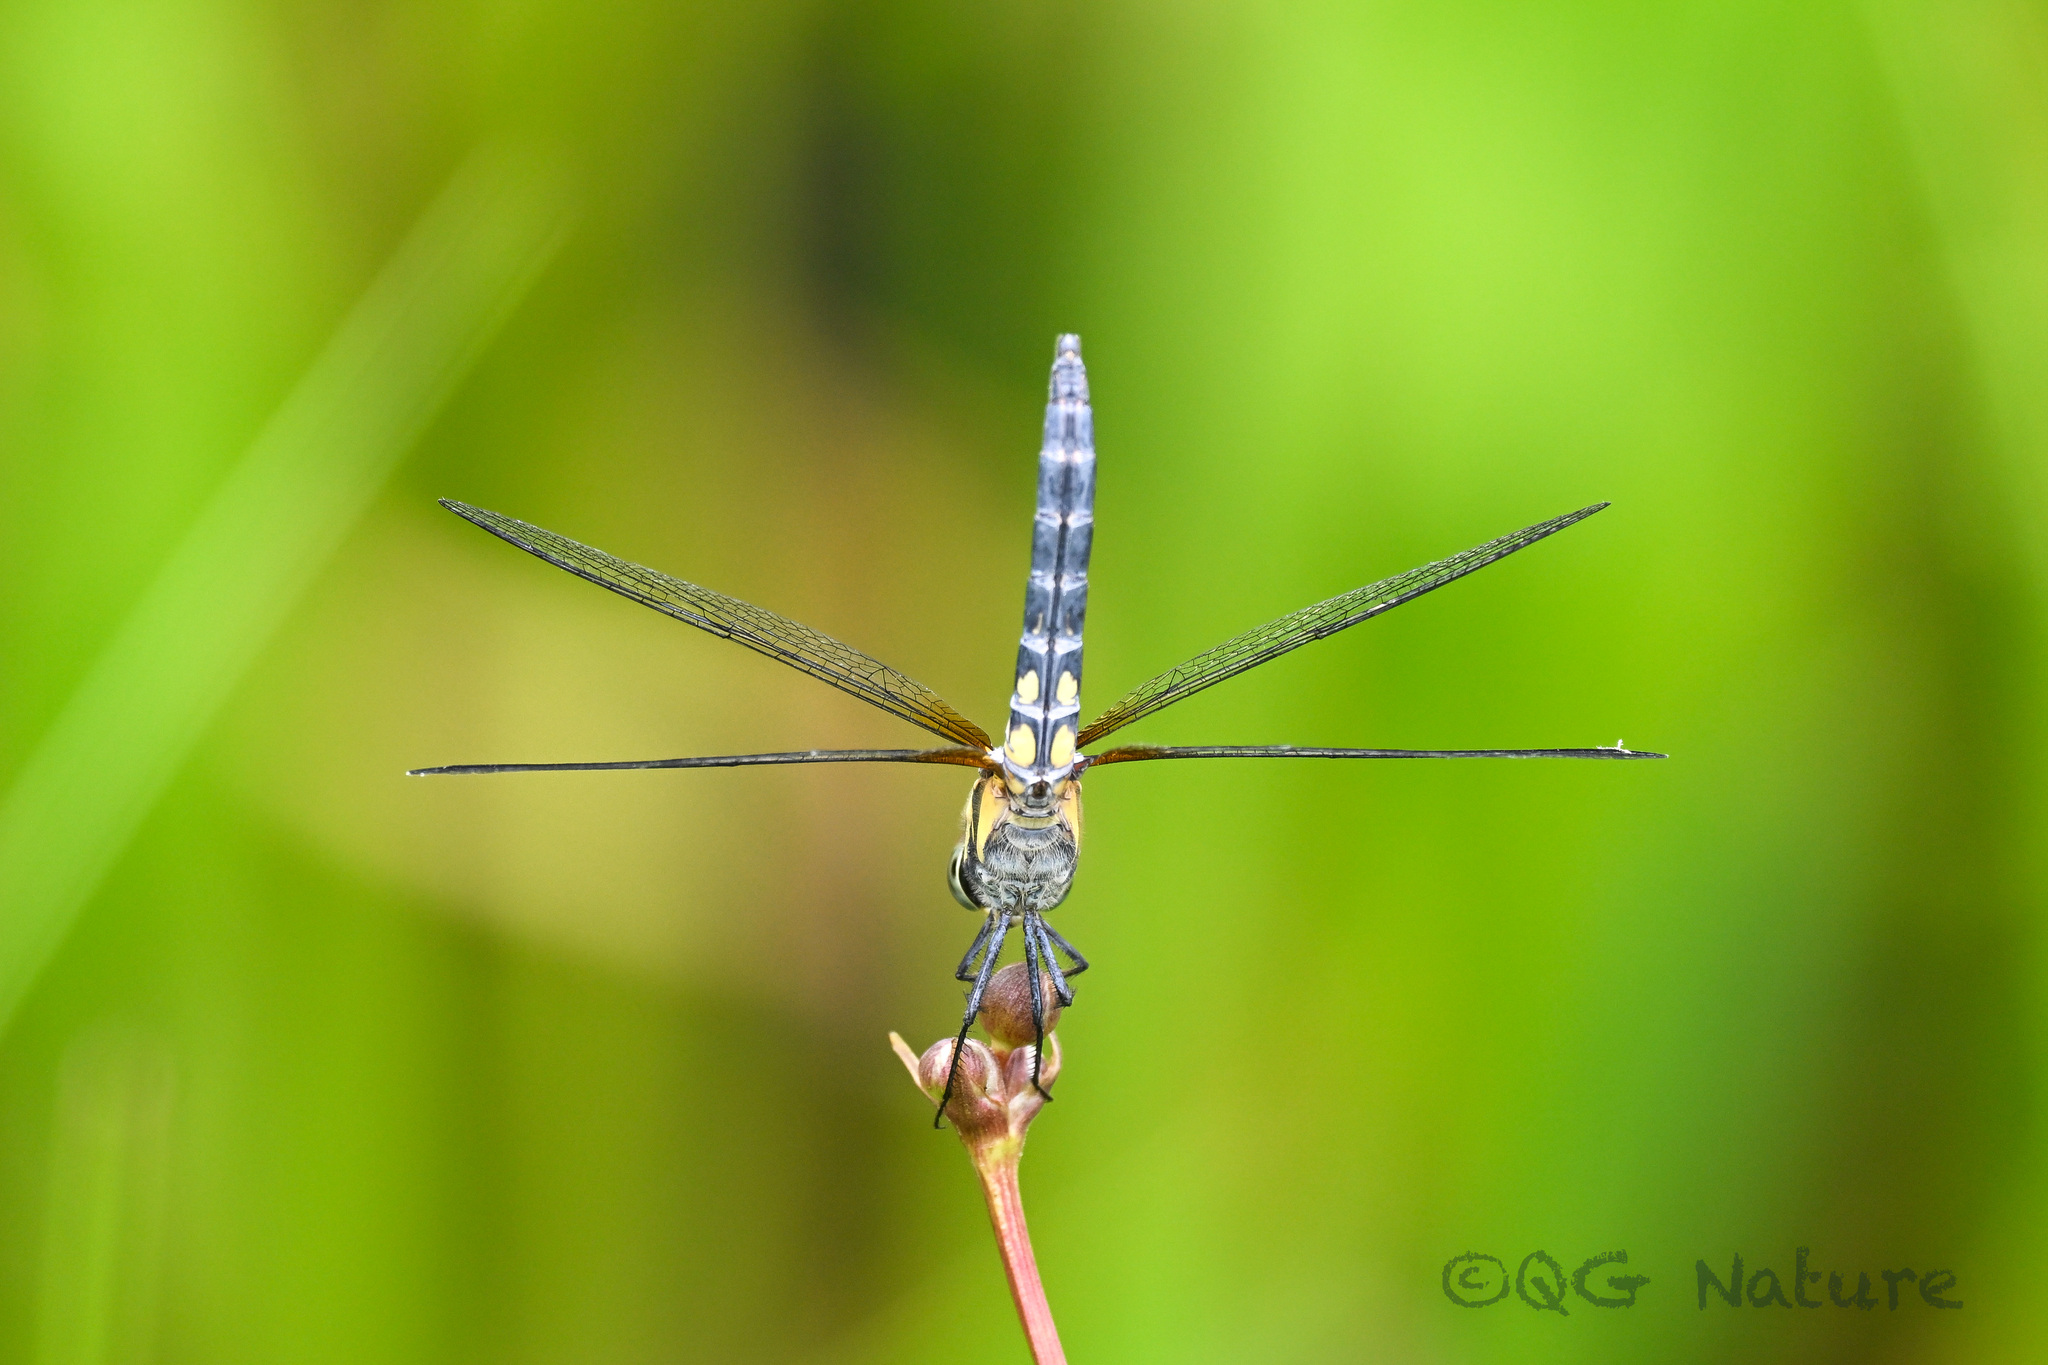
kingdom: Animalia
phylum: Arthropoda
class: Insecta
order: Odonata
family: Libellulidae
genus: Brachydiplax
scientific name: Brachydiplax chalybea
